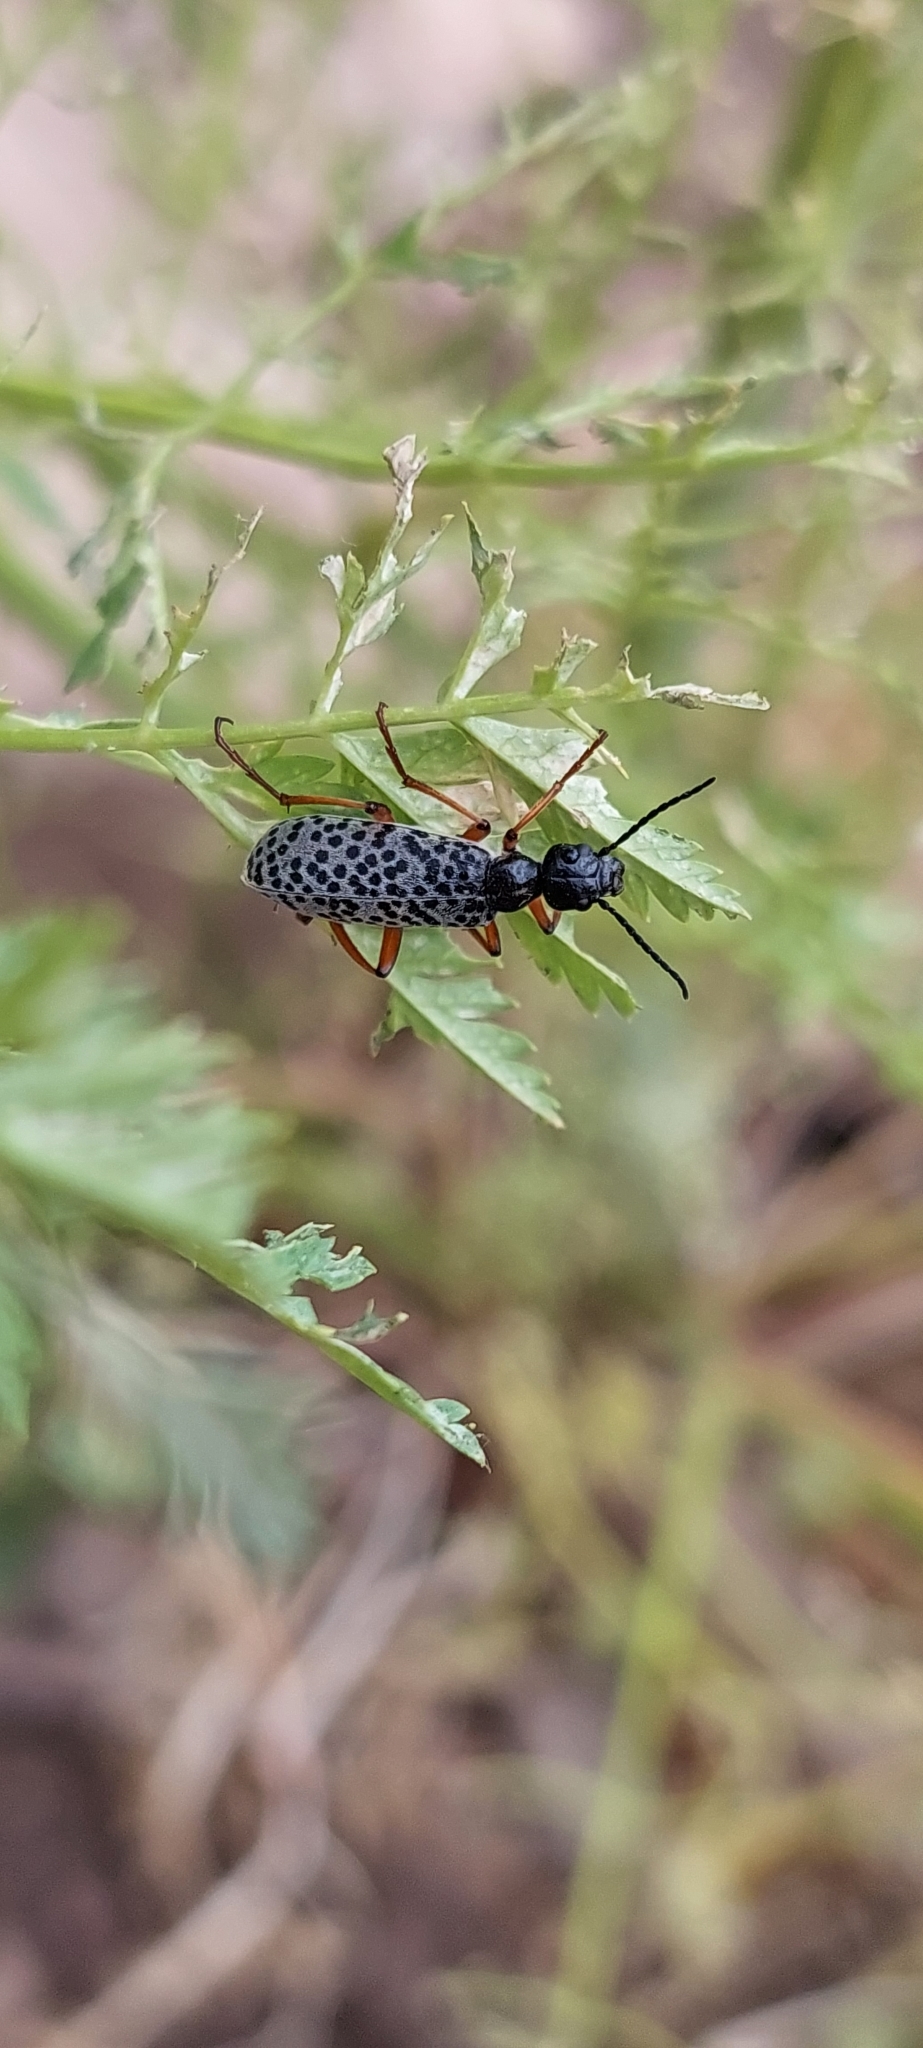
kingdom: Animalia
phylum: Arthropoda
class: Insecta
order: Coleoptera
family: Meloidae
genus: Epicauta
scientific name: Epicauta
